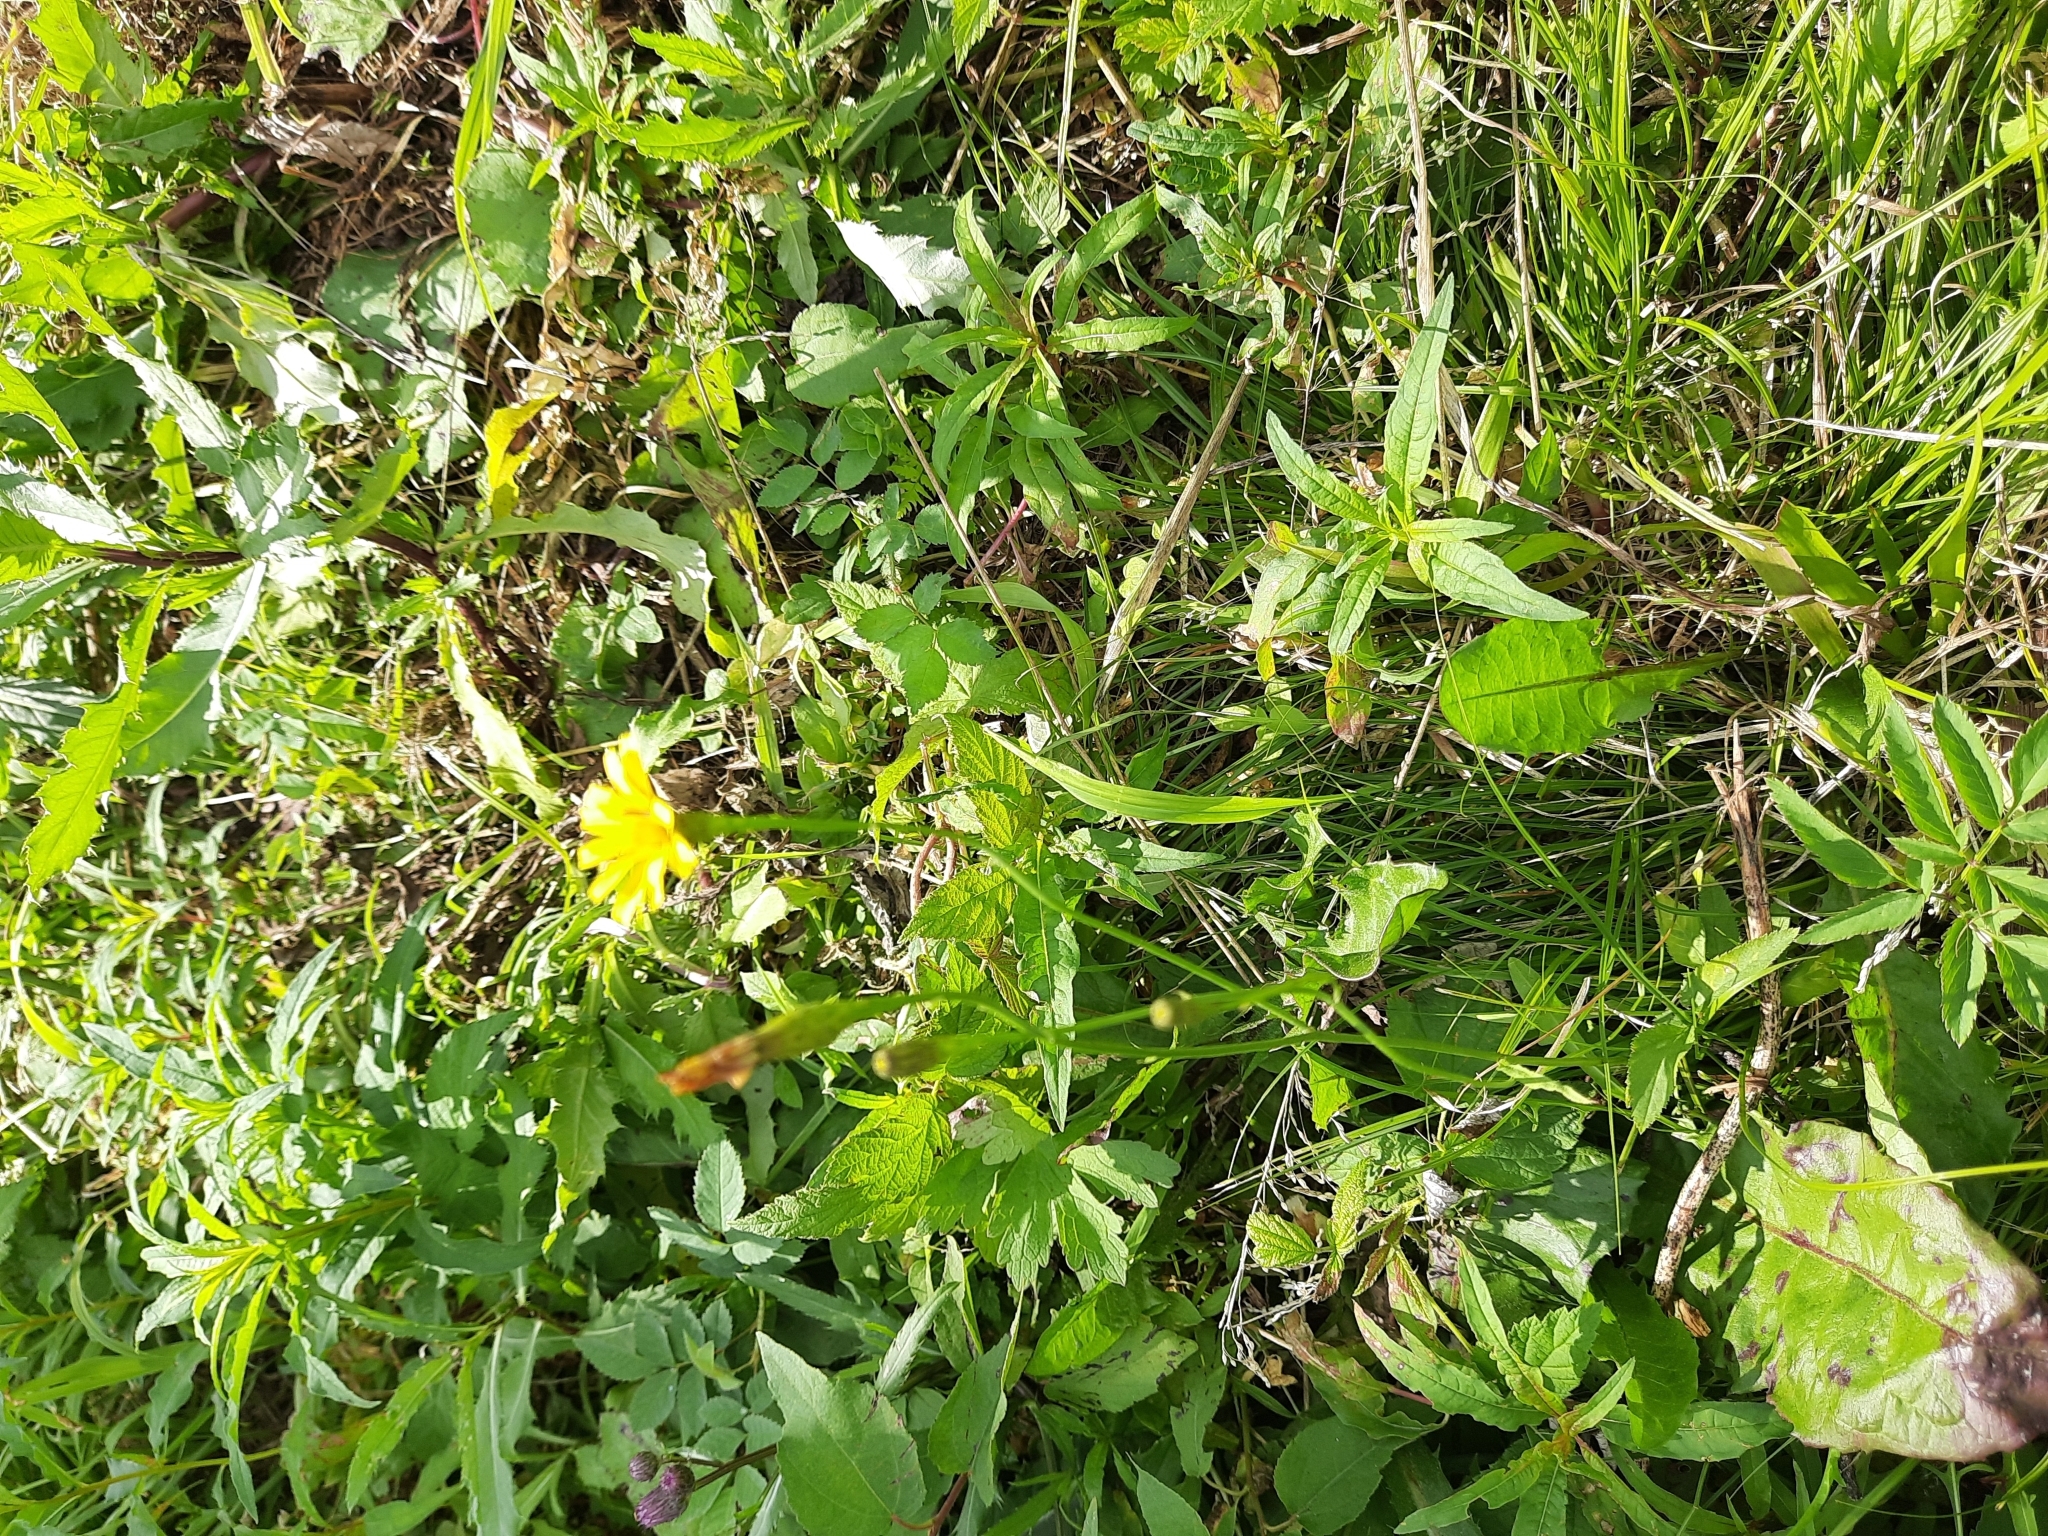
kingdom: Plantae
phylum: Tracheophyta
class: Magnoliopsida
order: Asterales
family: Asteraceae
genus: Scorzoneroides
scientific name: Scorzoneroides autumnalis
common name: Autumn hawkbit
